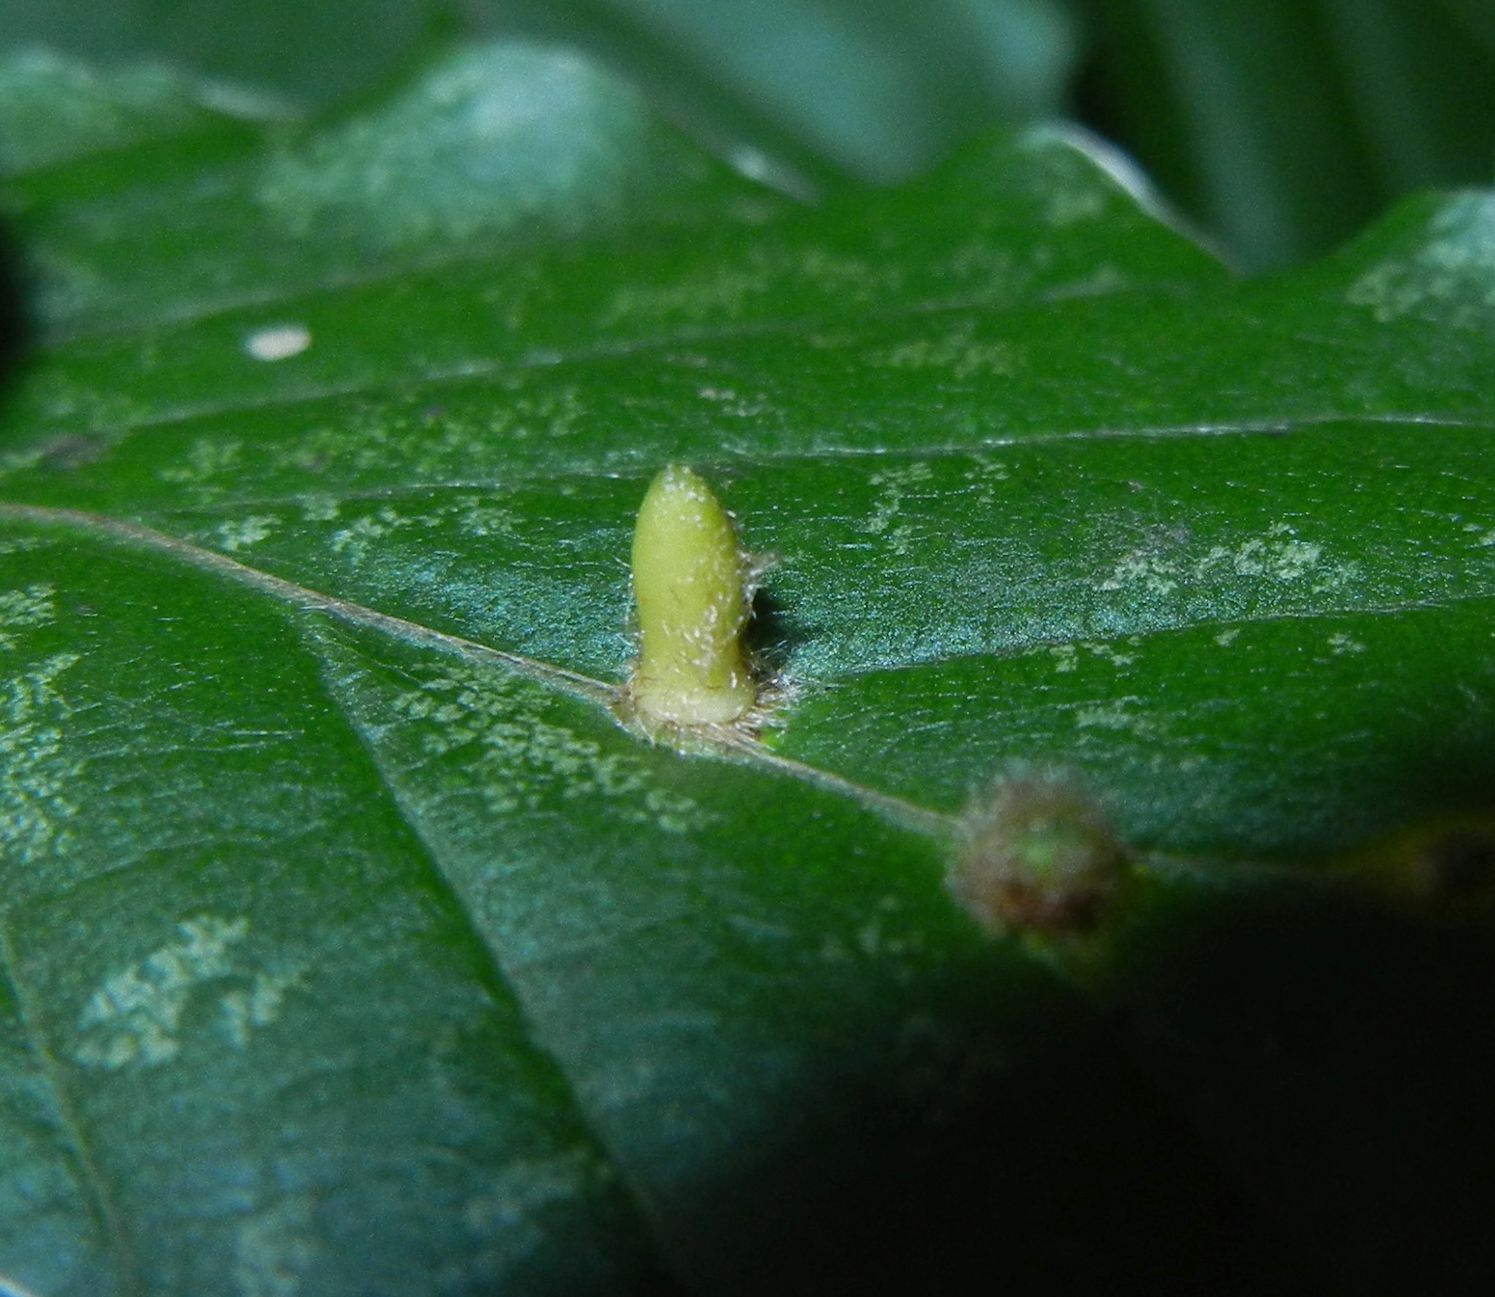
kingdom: Animalia
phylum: Arthropoda
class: Insecta
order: Diptera
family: Cecidomyiidae
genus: Hartigiola
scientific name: Hartigiola annulipes
